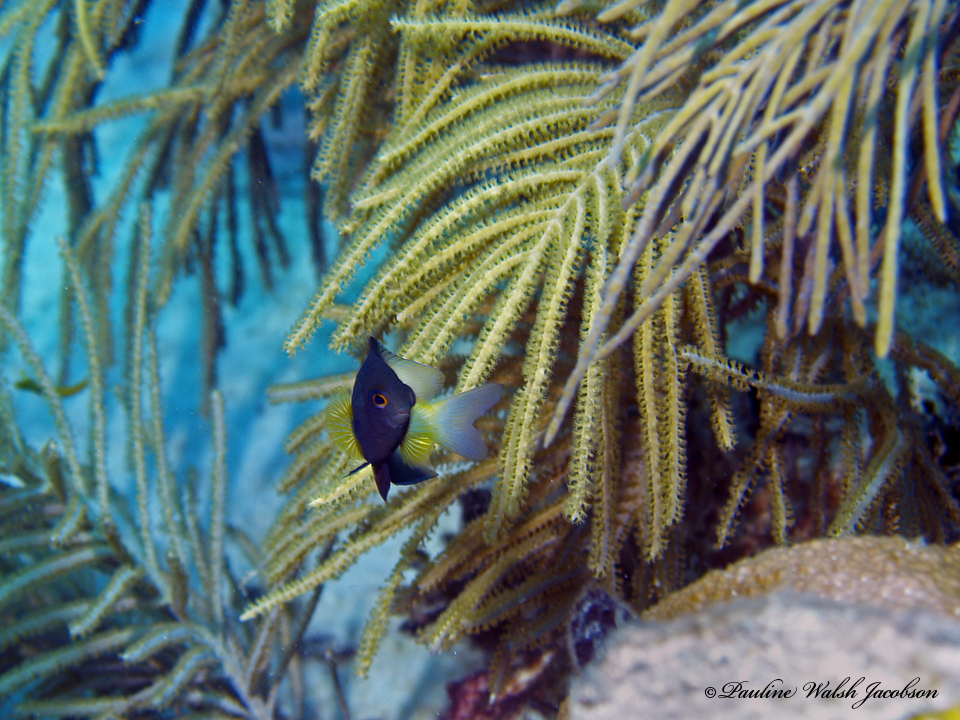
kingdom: Animalia
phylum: Chordata
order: Perciformes
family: Pomacentridae
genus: Stegastes
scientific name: Stegastes partitus
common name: Bicolor damselfish
